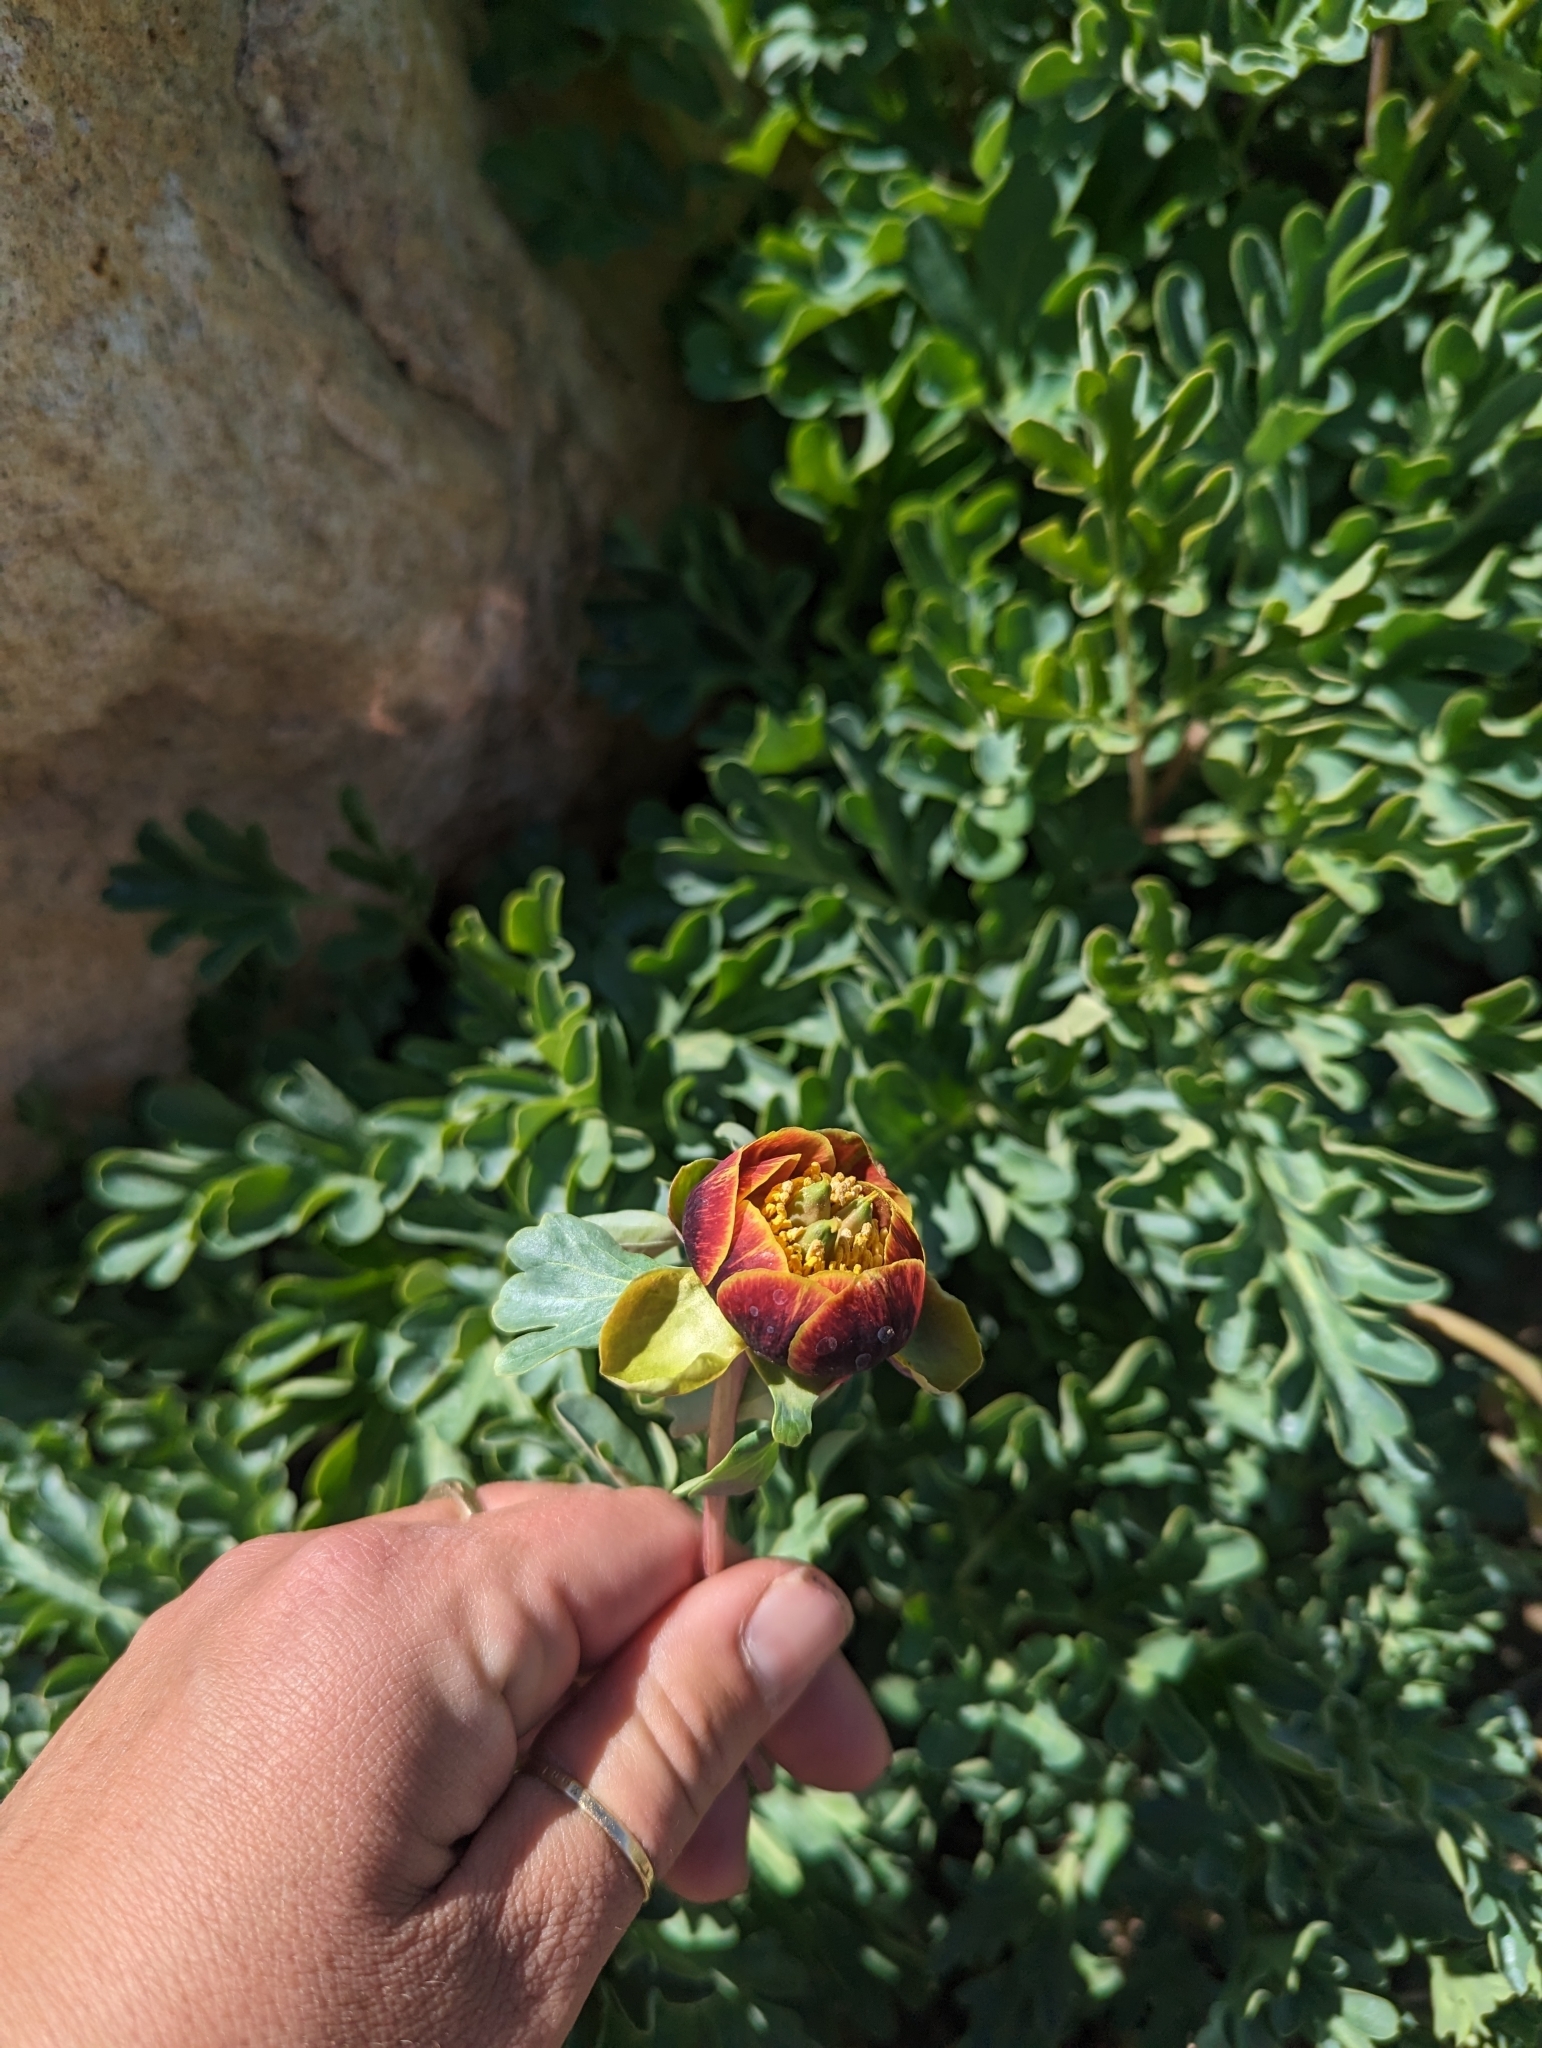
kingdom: Plantae
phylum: Tracheophyta
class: Magnoliopsida
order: Saxifragales
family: Paeoniaceae
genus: Paeonia
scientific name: Paeonia brownii
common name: Brown's peony
